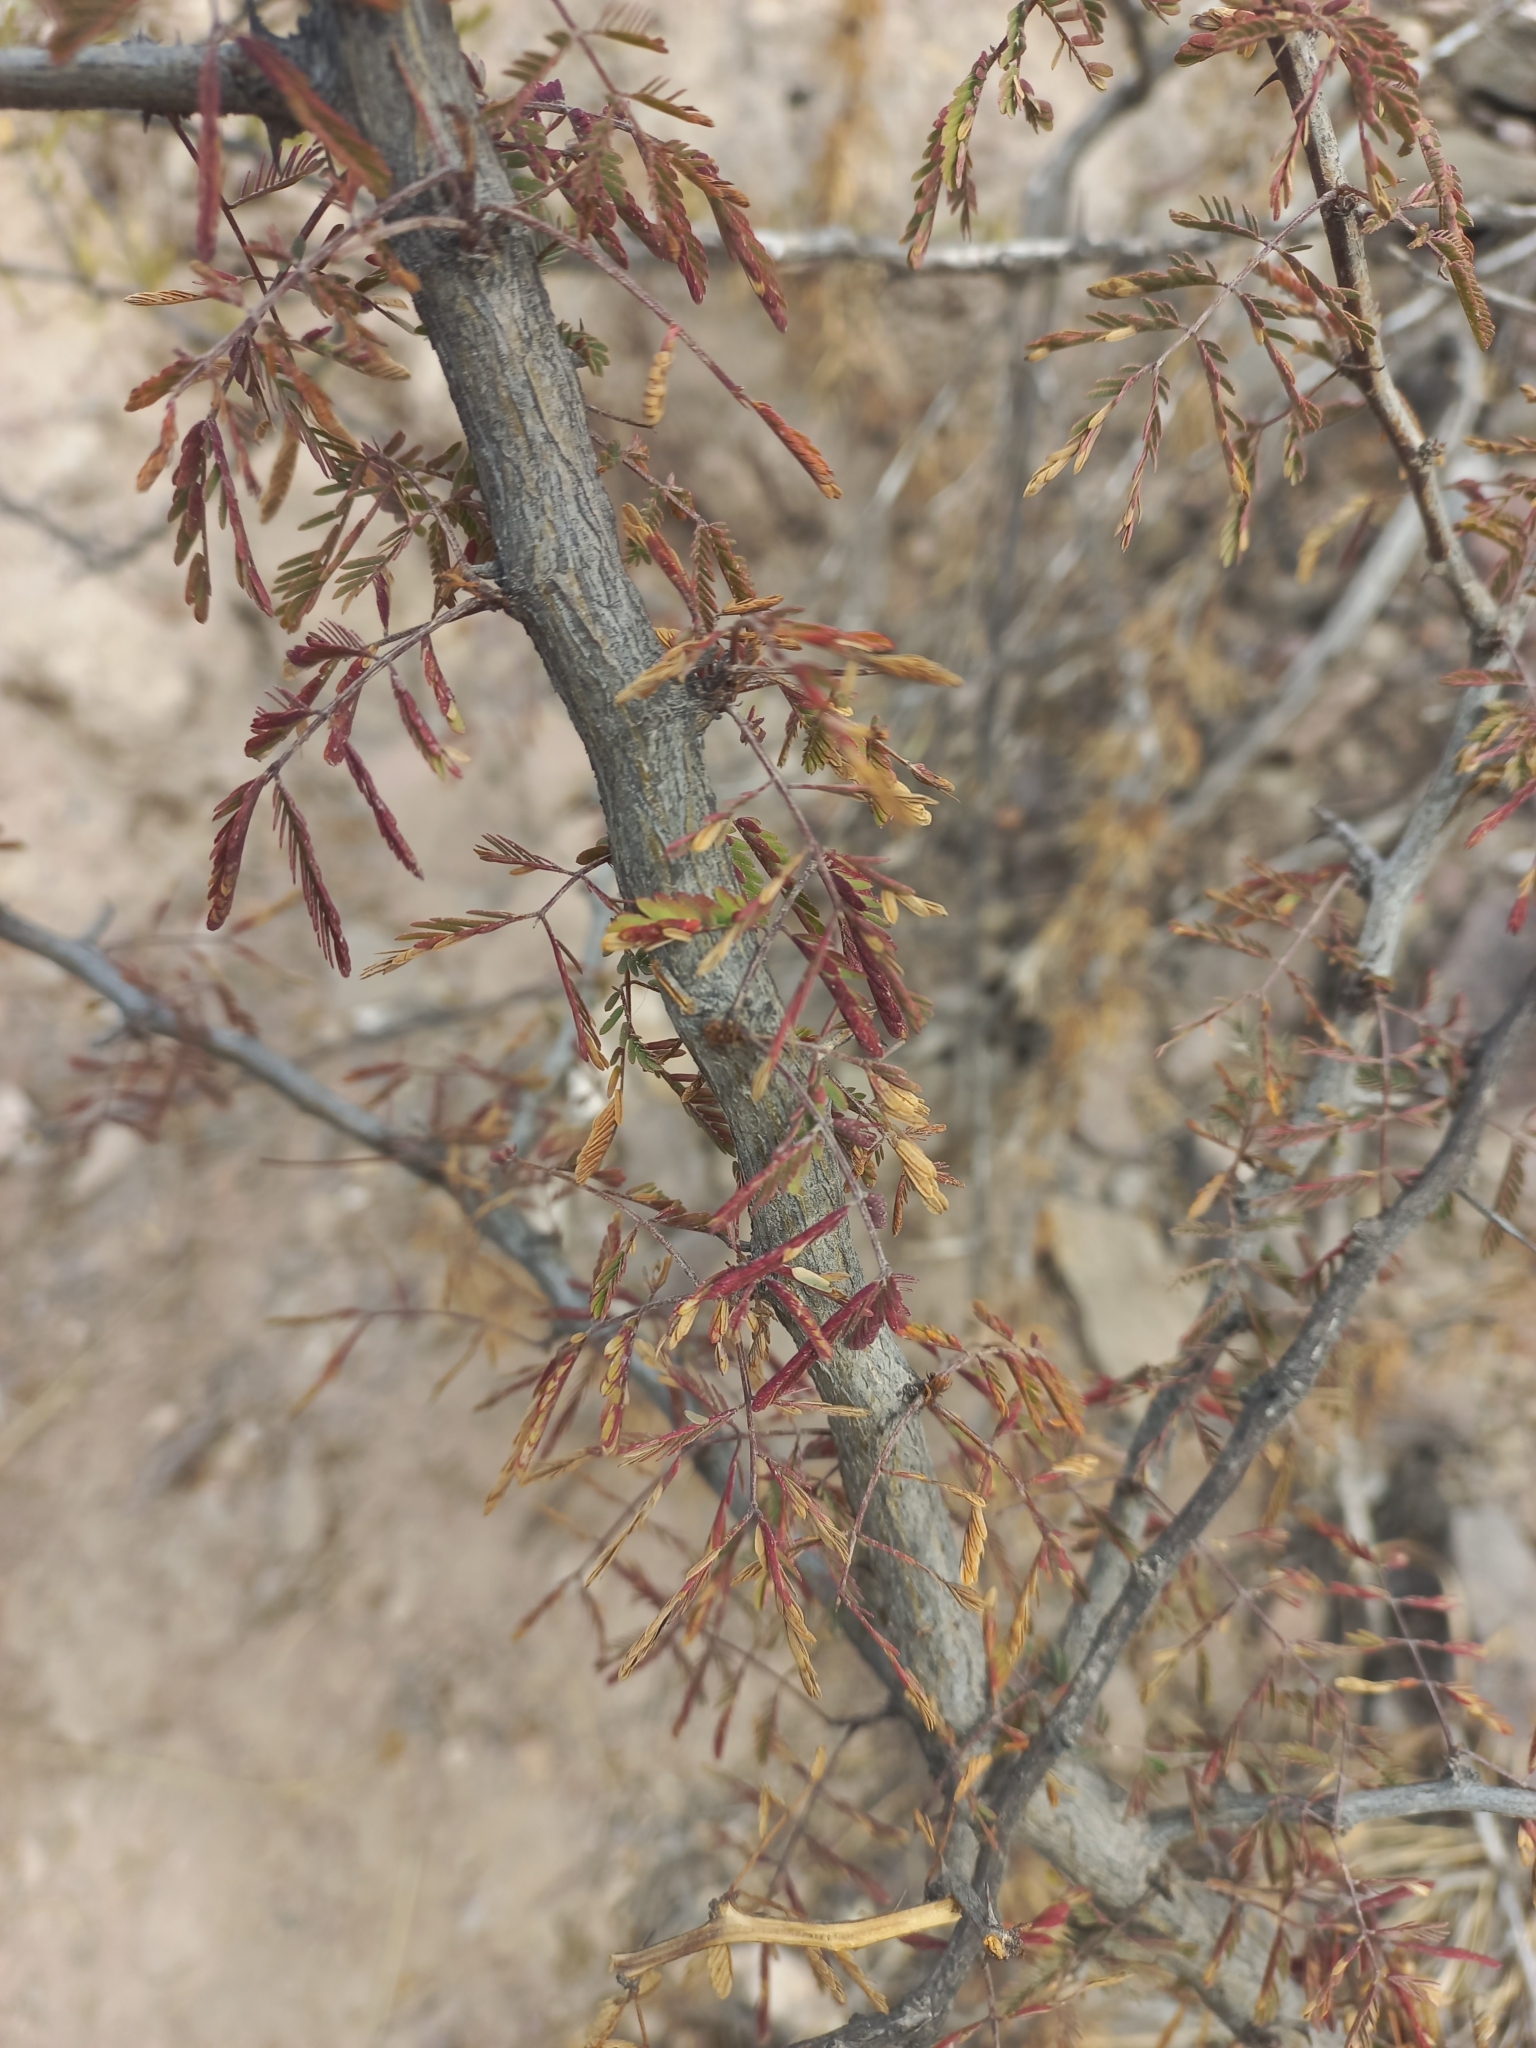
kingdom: Plantae
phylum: Tracheophyta
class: Magnoliopsida
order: Fabales
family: Fabaceae
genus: Senegalia
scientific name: Senegalia gilliesii
